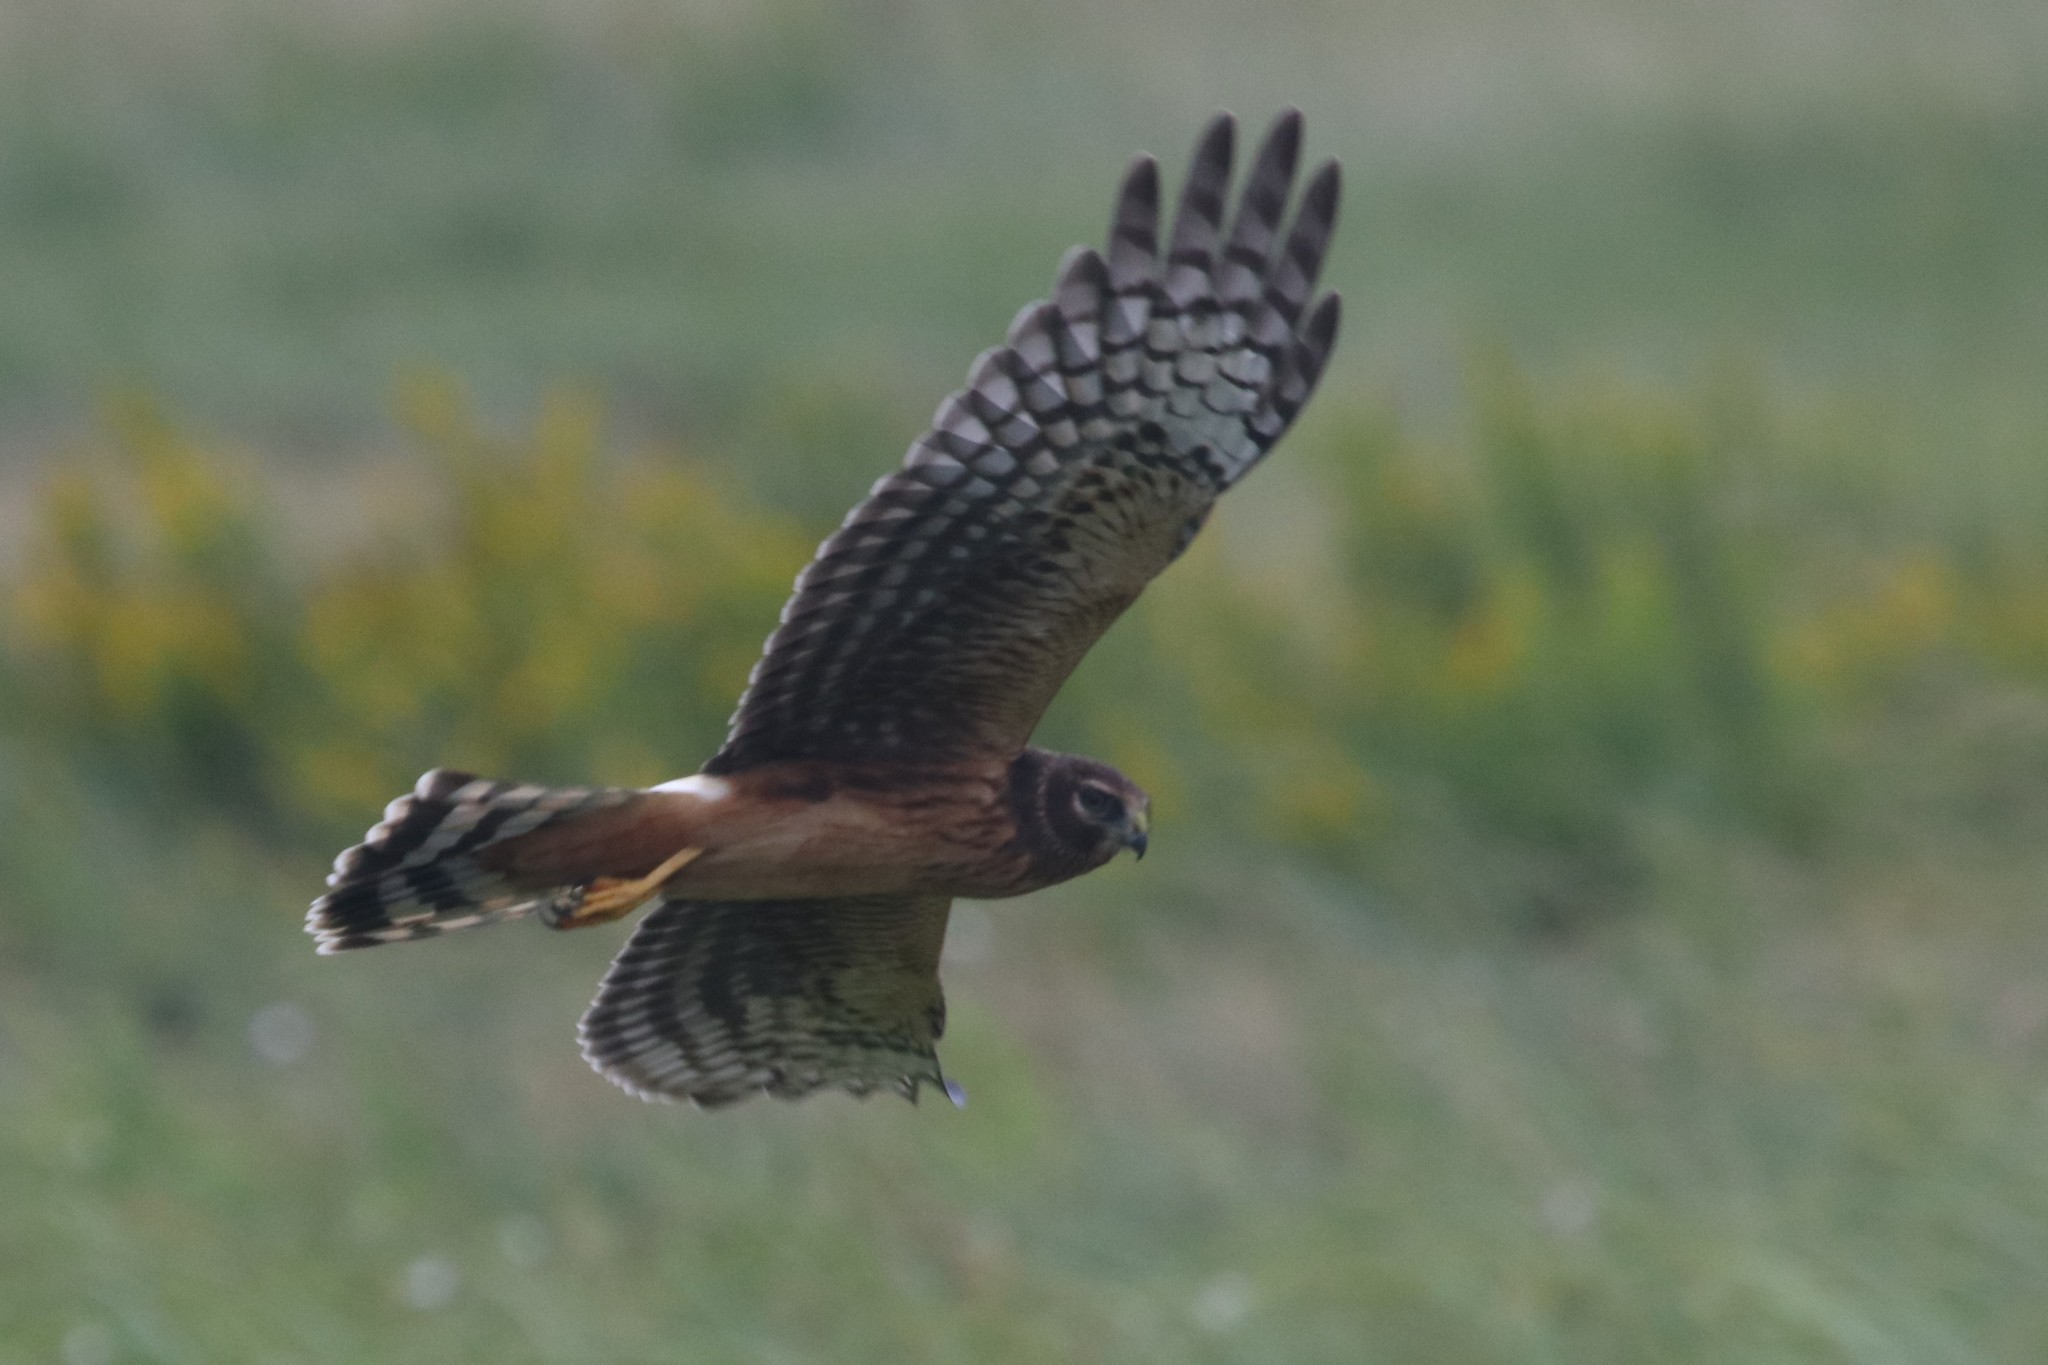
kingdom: Animalia
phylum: Chordata
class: Aves
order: Accipitriformes
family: Accipitridae
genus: Circus
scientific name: Circus cyaneus
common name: Hen harrier
